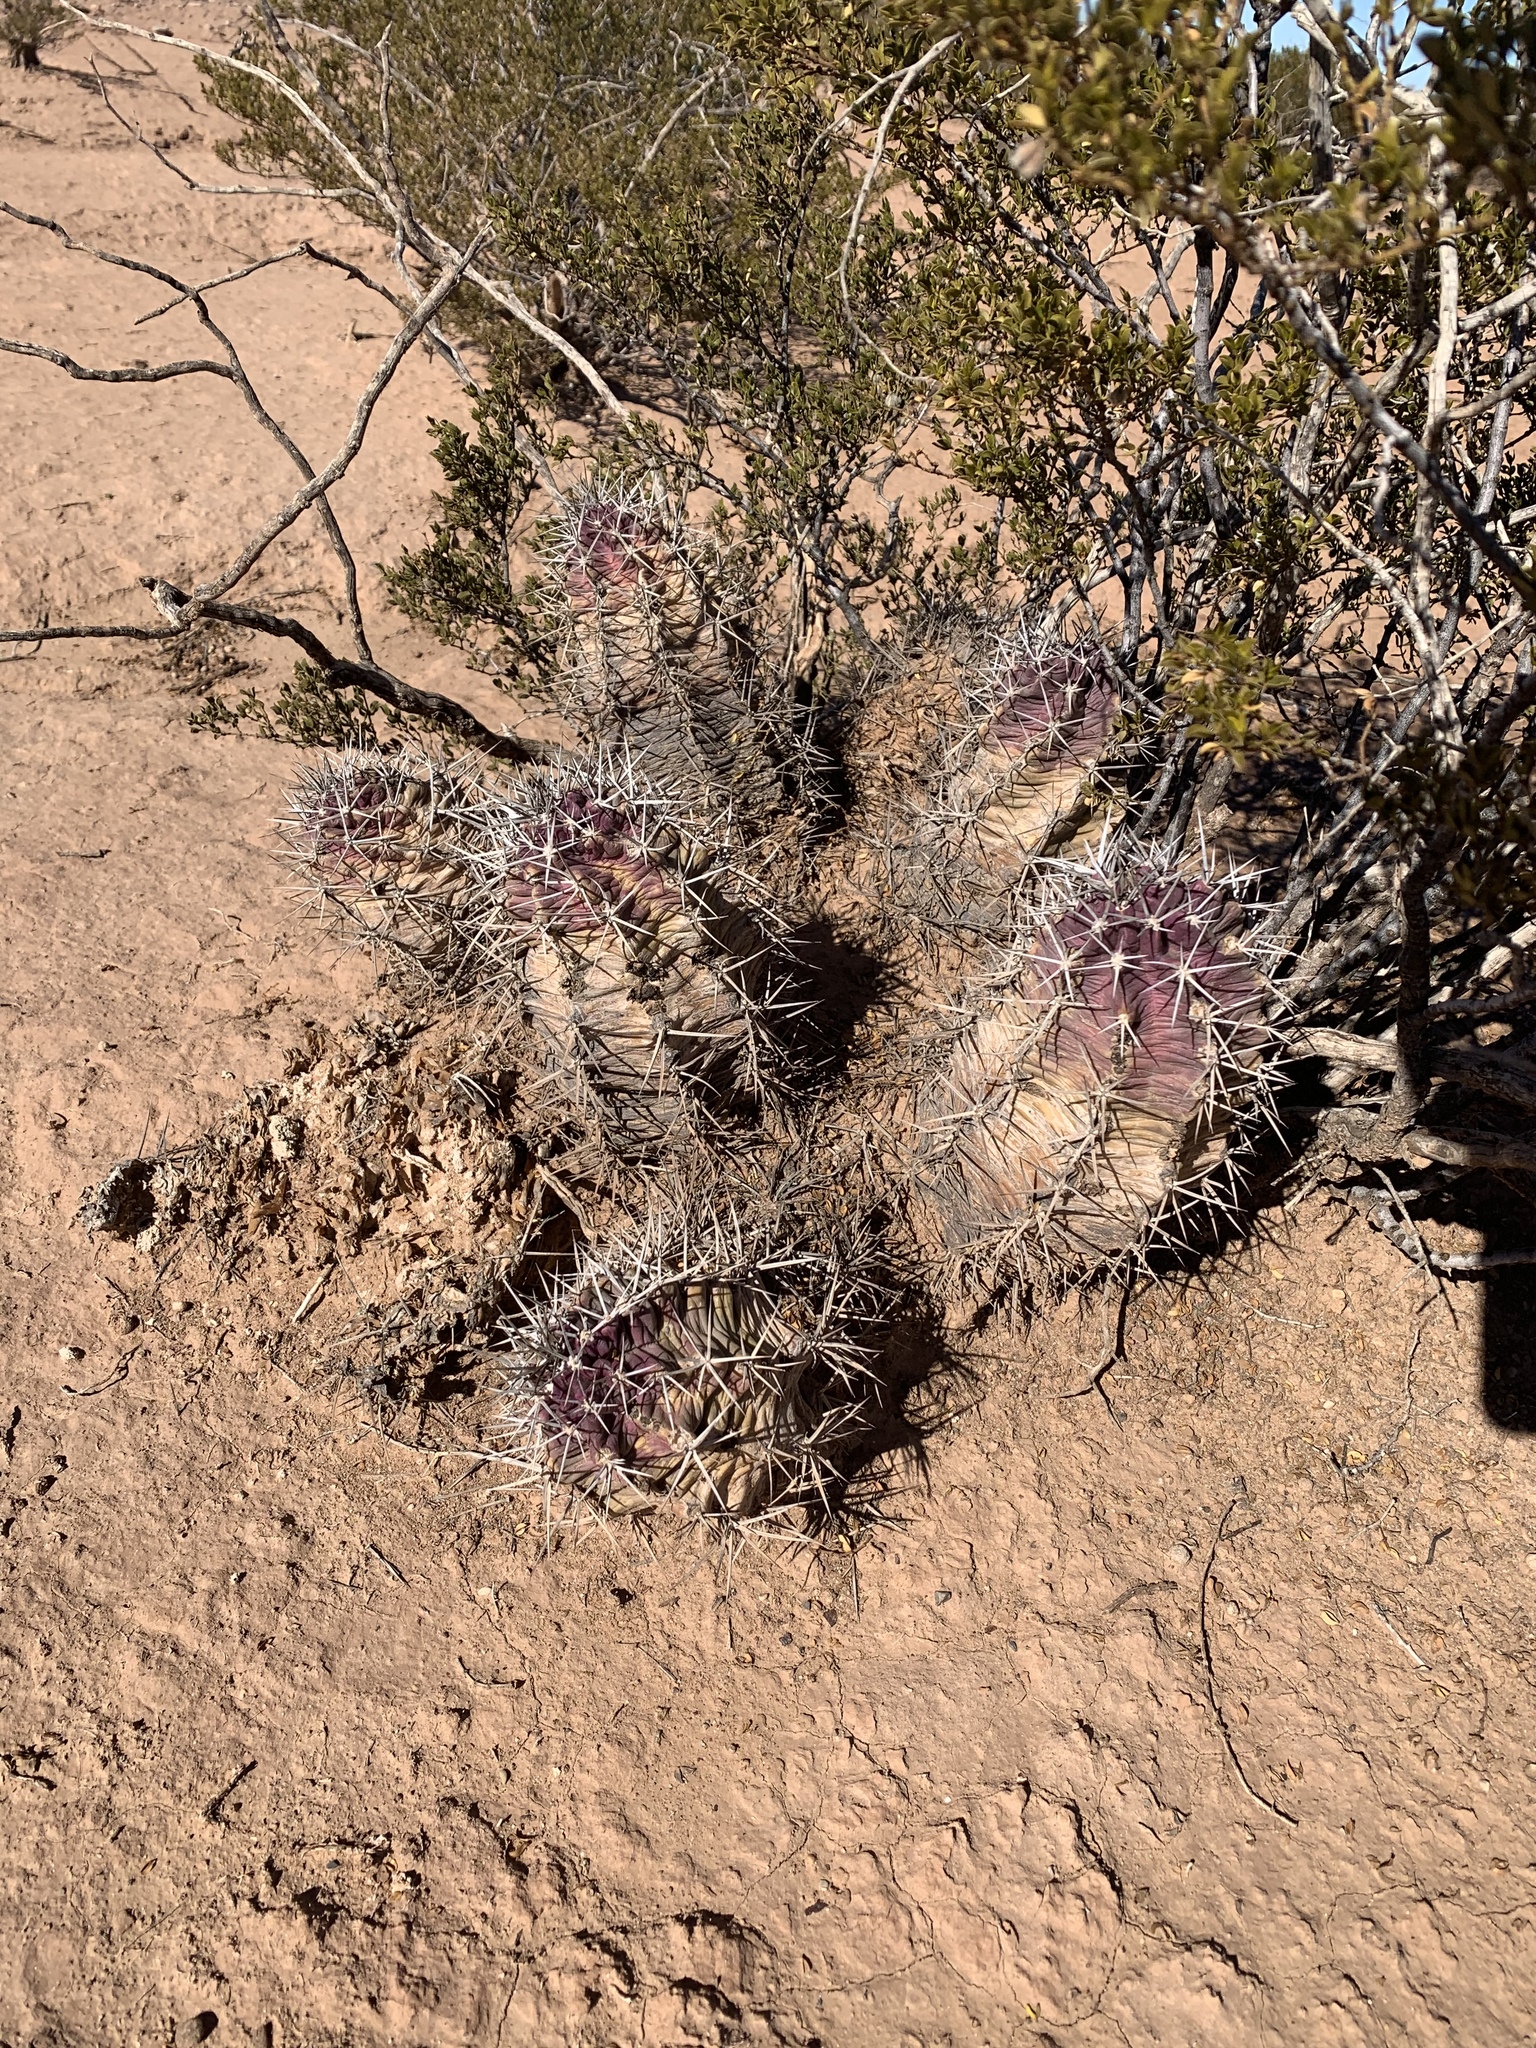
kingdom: Plantae
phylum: Tracheophyta
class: Magnoliopsida
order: Caryophyllales
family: Cactaceae
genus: Echinocereus
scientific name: Echinocereus triglochidiatus
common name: Claretcup hedgehog
